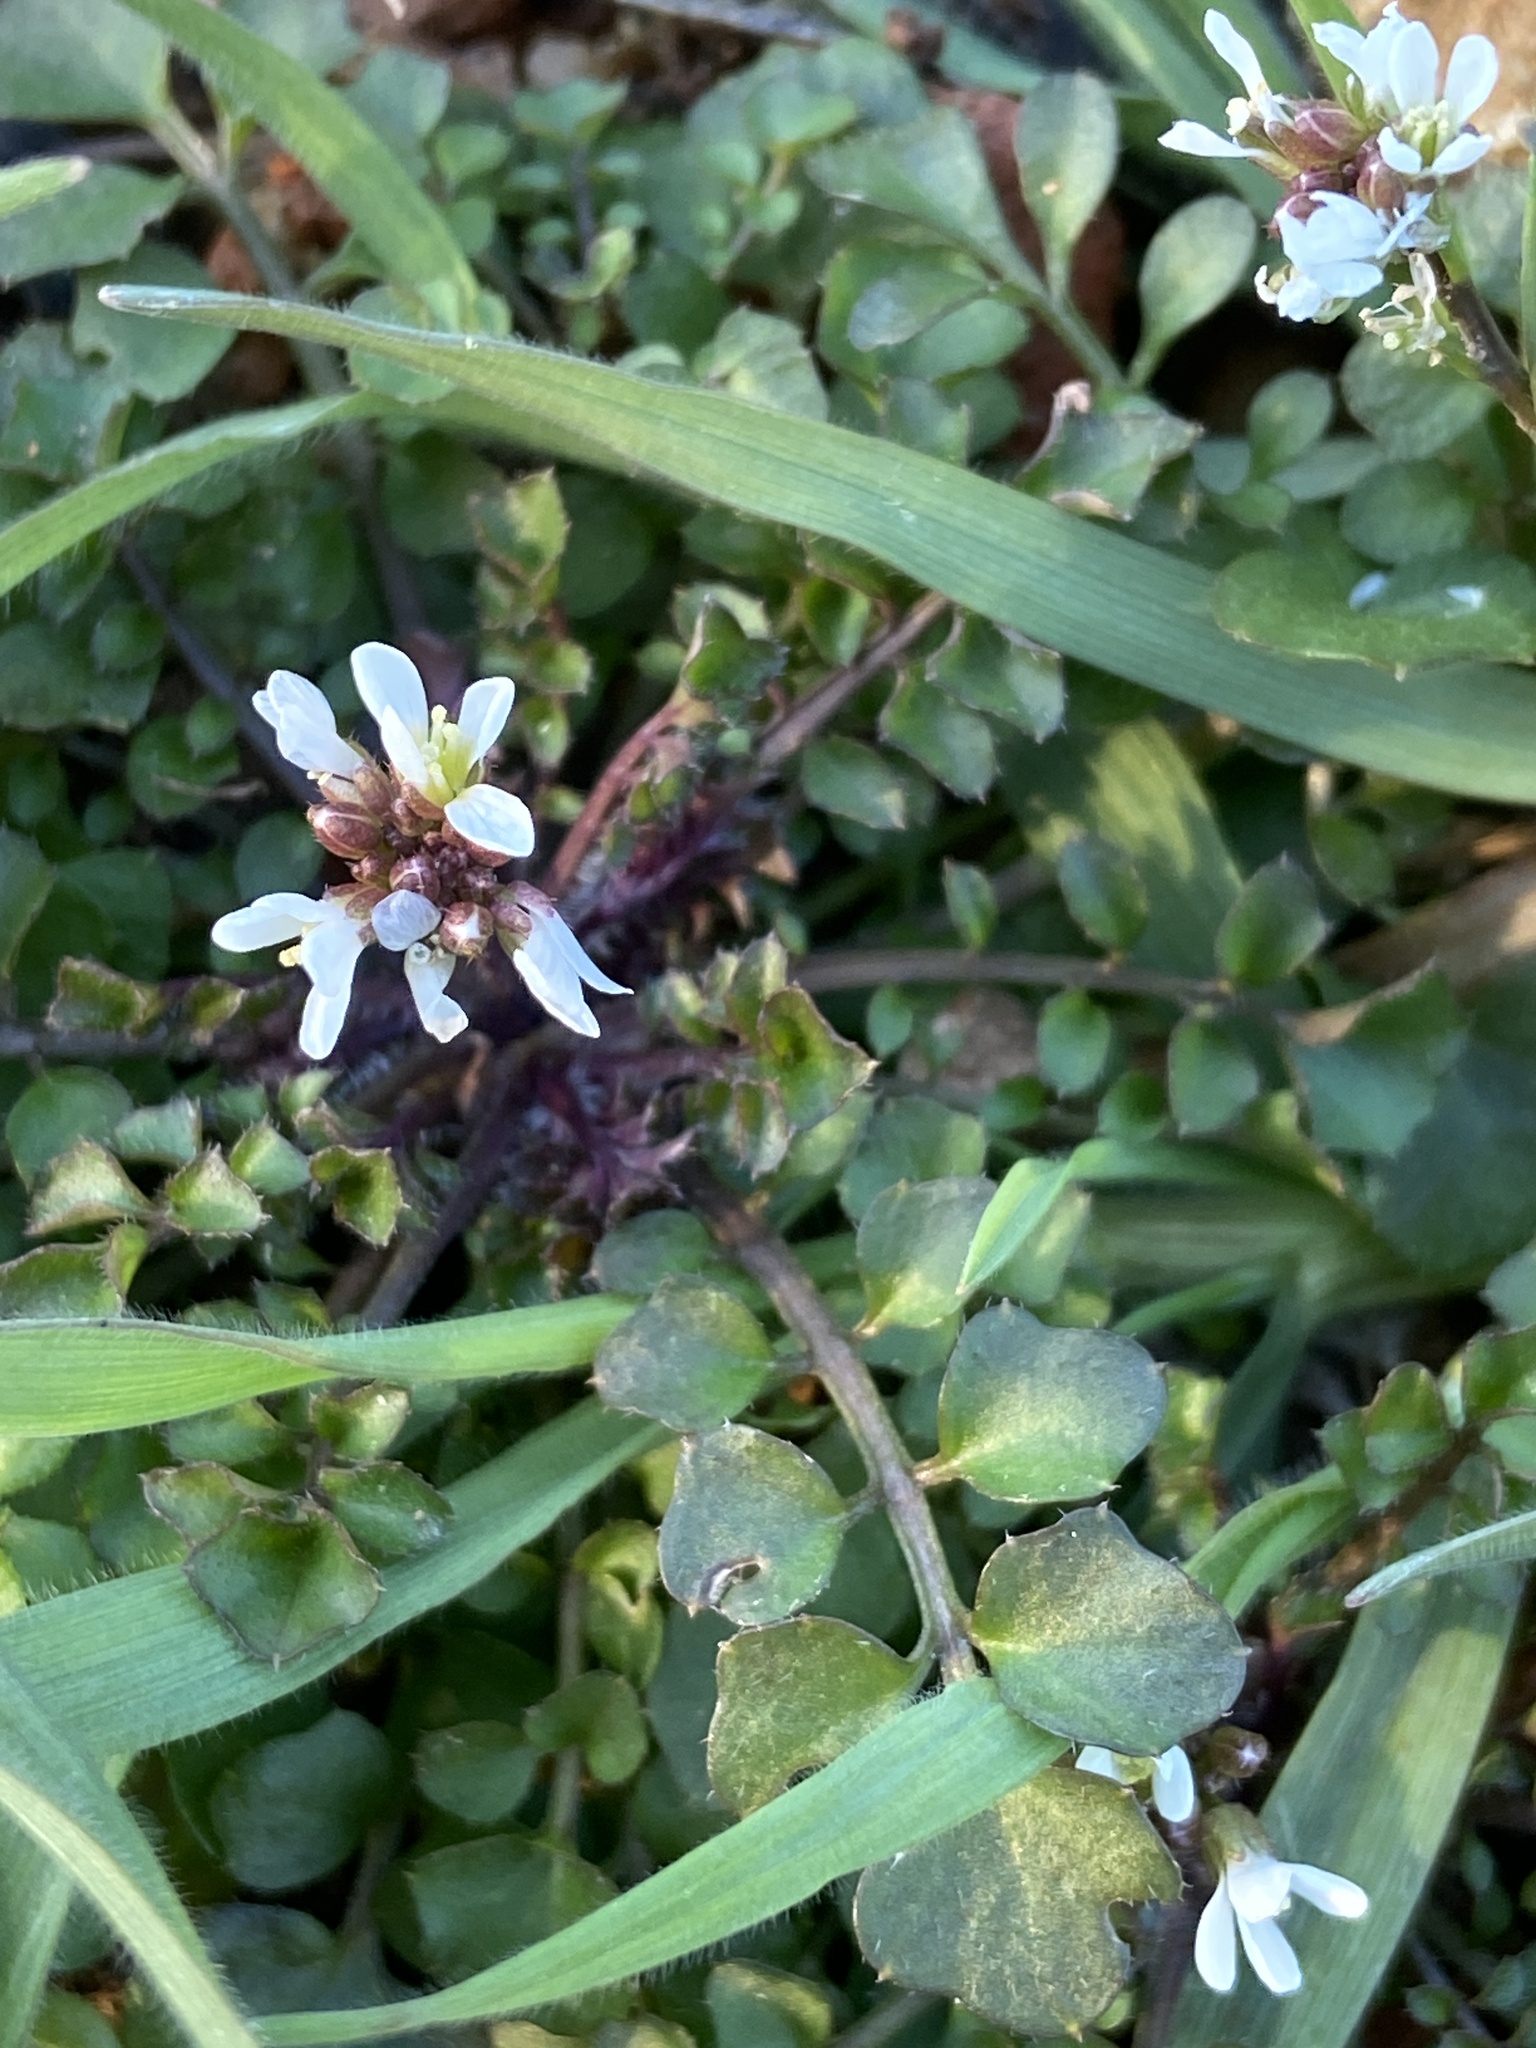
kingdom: Plantae
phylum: Tracheophyta
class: Magnoliopsida
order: Brassicales
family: Brassicaceae
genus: Cardamine
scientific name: Cardamine hirsuta
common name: Hairy bittercress
